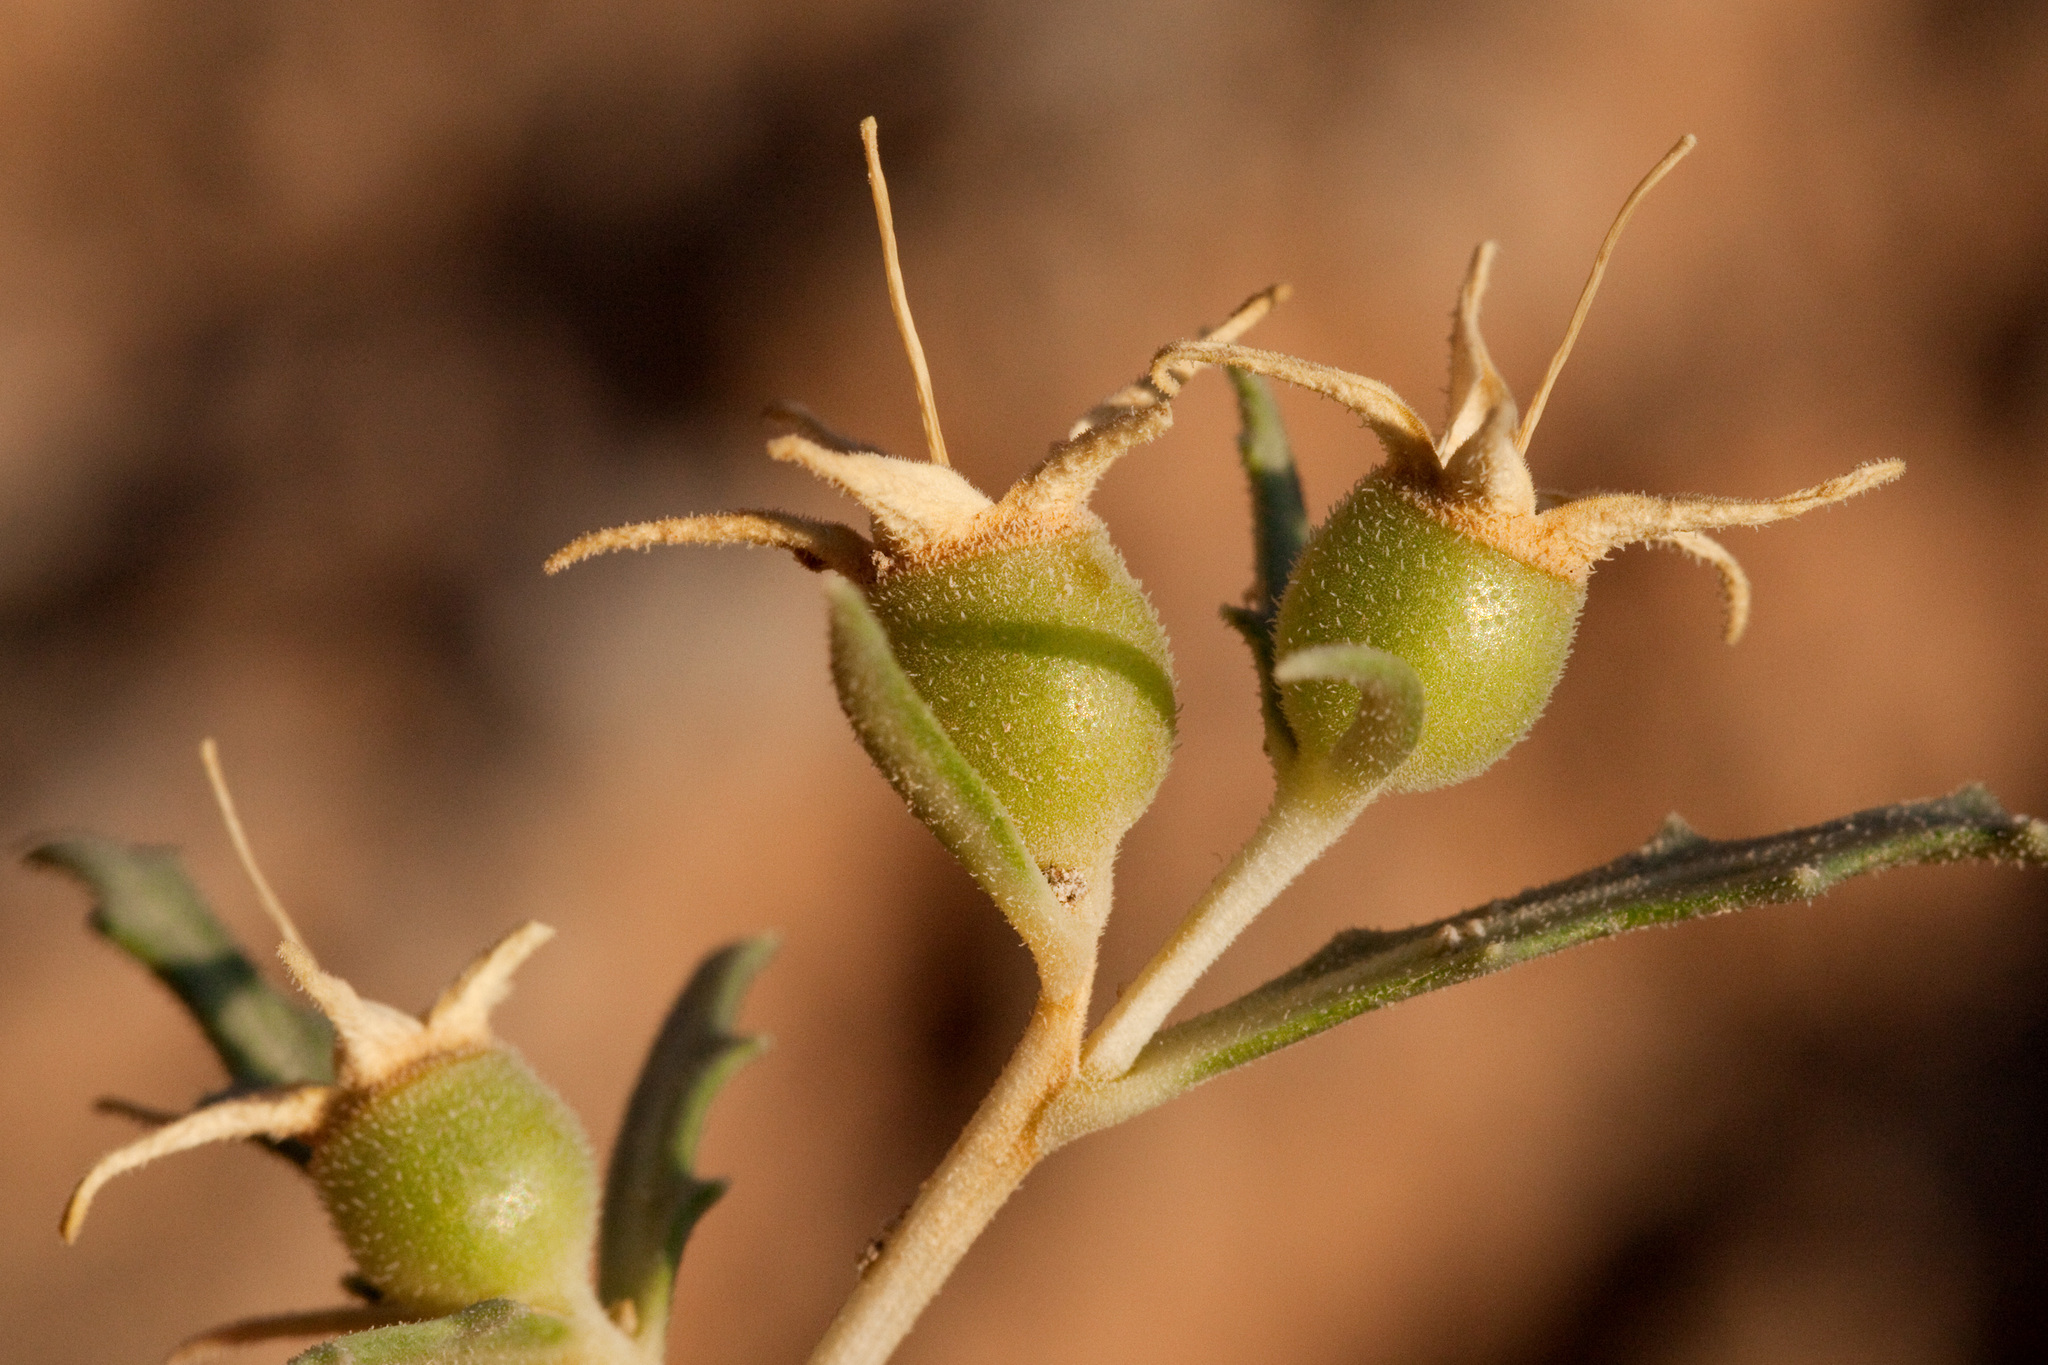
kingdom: Plantae
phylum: Tracheophyta
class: Magnoliopsida
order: Cornales
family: Loasaceae
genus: Mentzelia
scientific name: Mentzelia humilis
